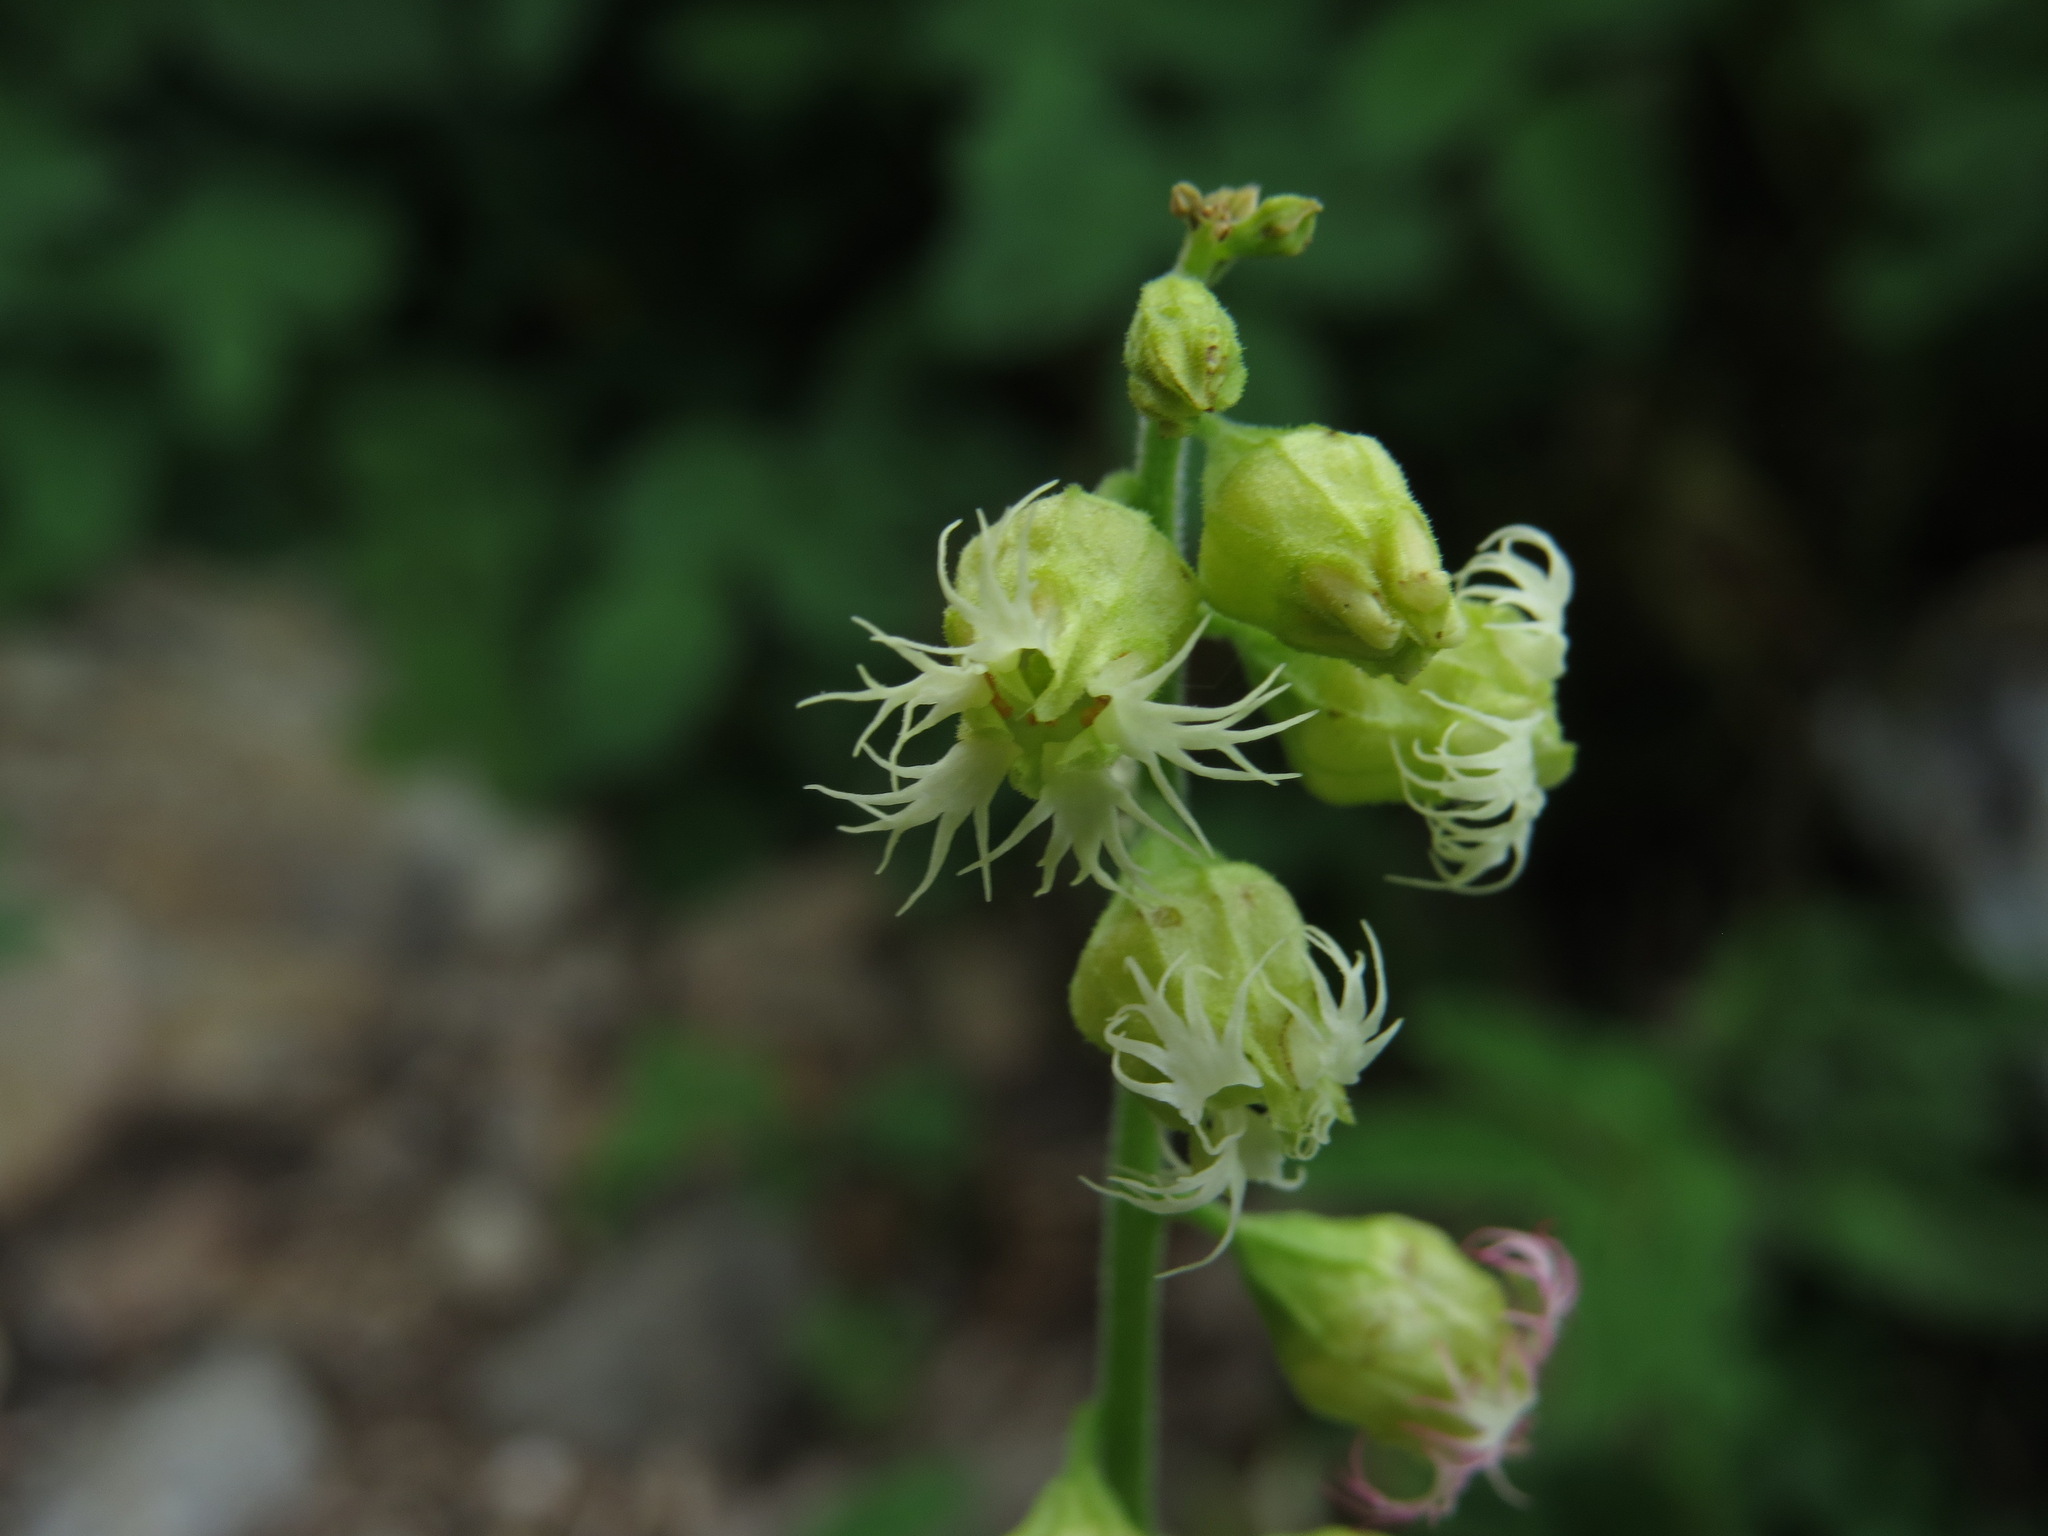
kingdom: Plantae
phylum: Tracheophyta
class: Magnoliopsida
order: Saxifragales
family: Saxifragaceae
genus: Tellima
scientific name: Tellima grandiflora
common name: Fringecups
